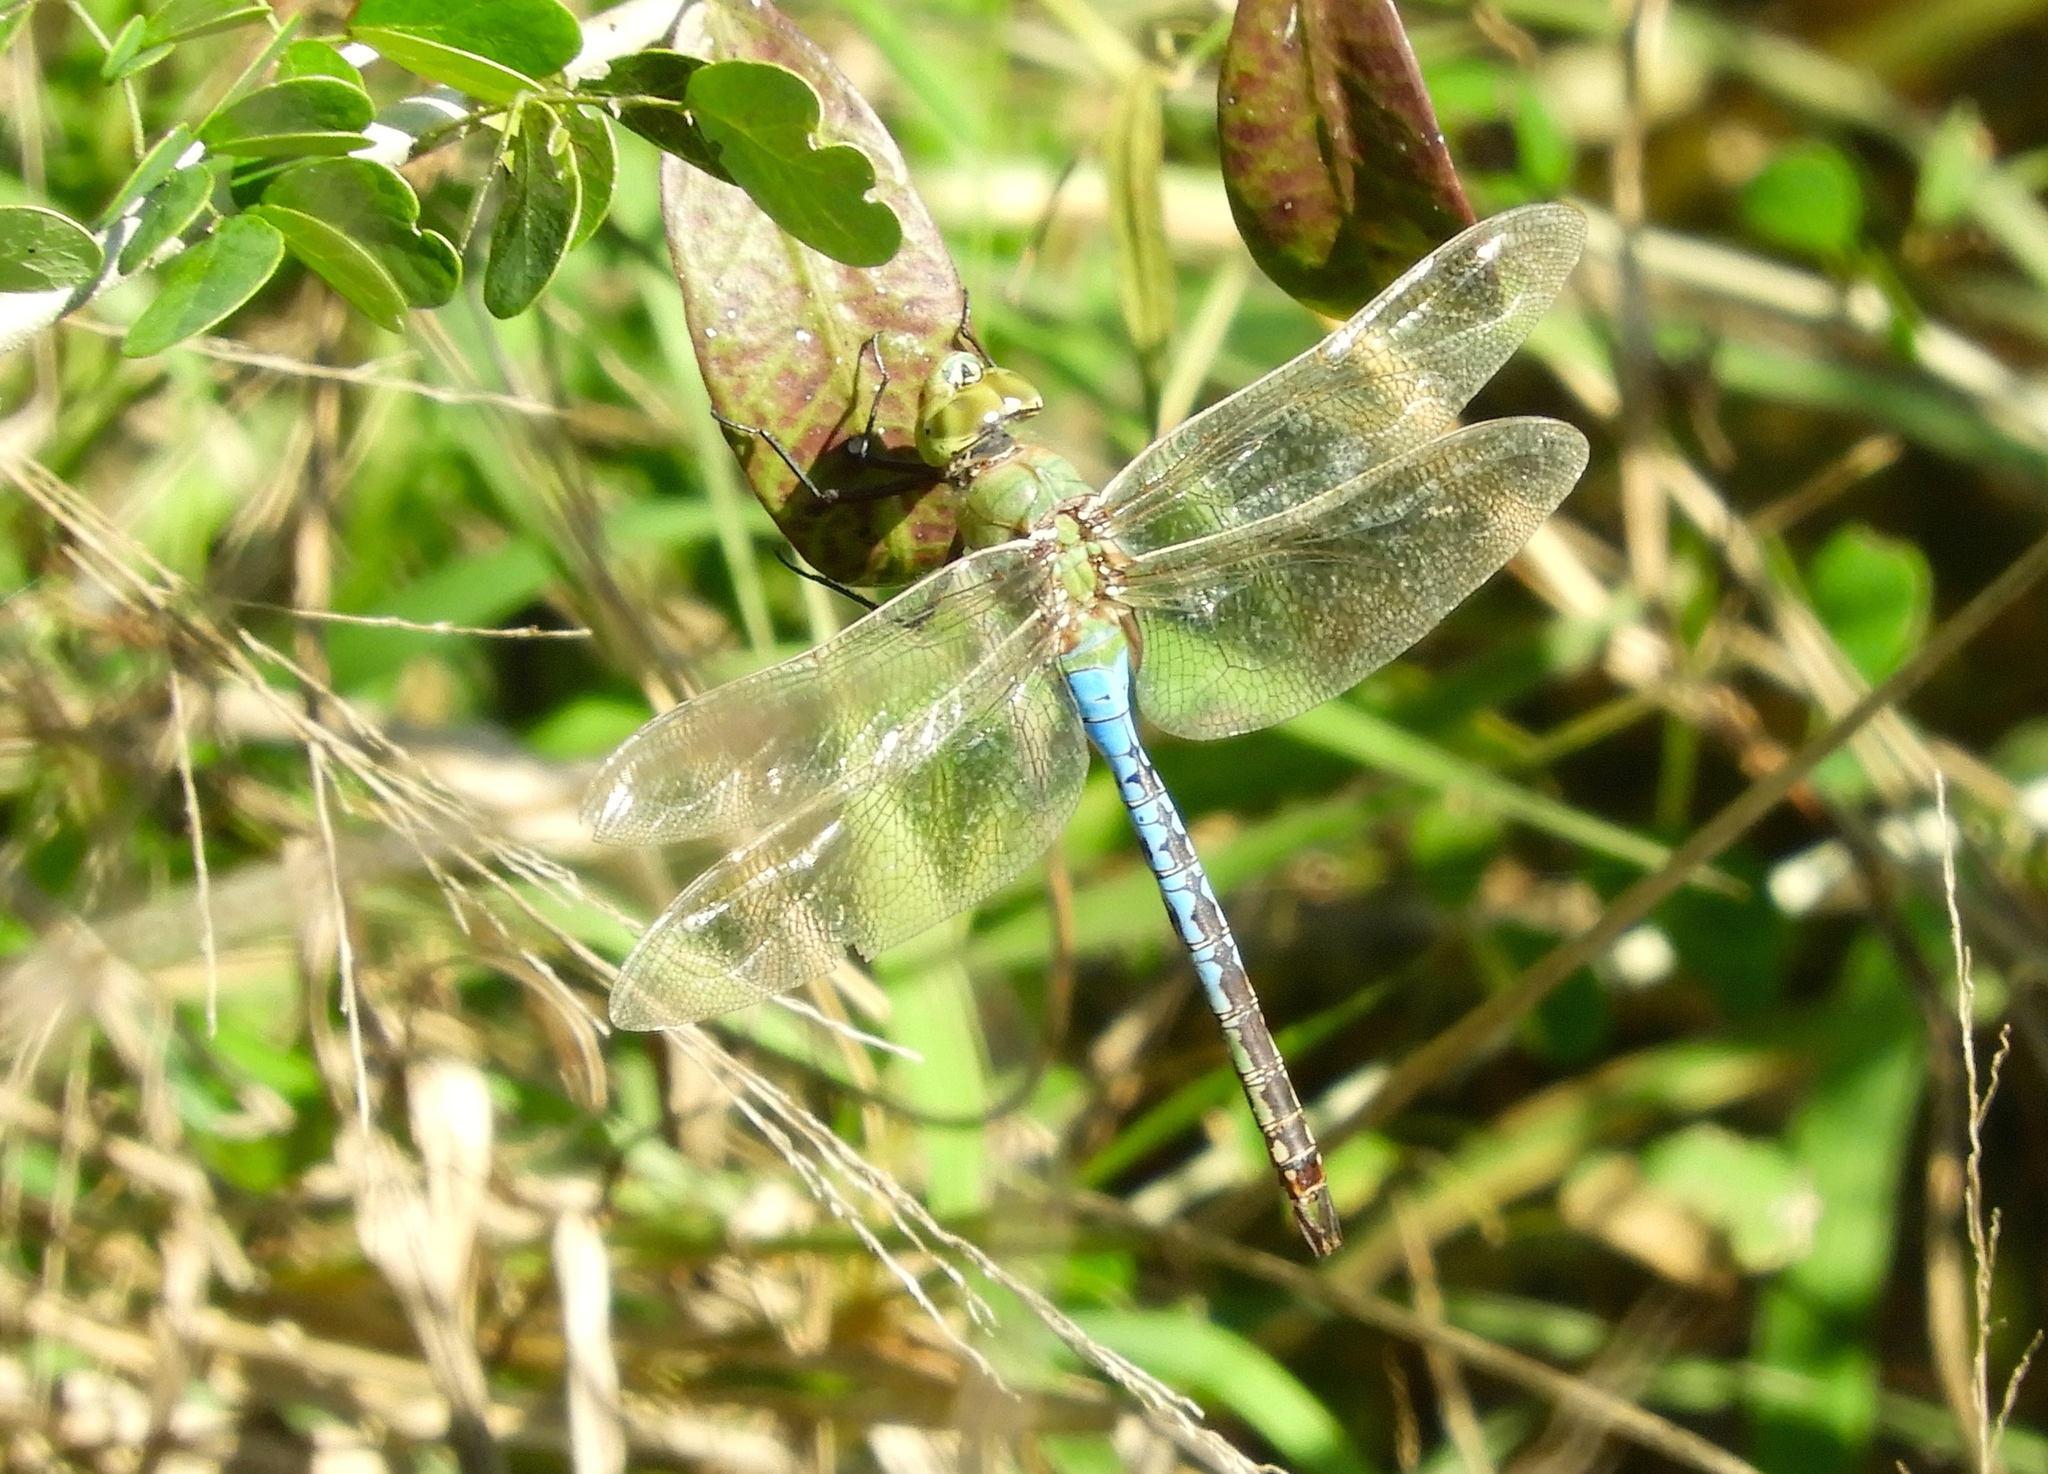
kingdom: Animalia
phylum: Arthropoda
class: Insecta
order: Odonata
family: Aeshnidae
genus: Anax
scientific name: Anax junius
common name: Common green darner
